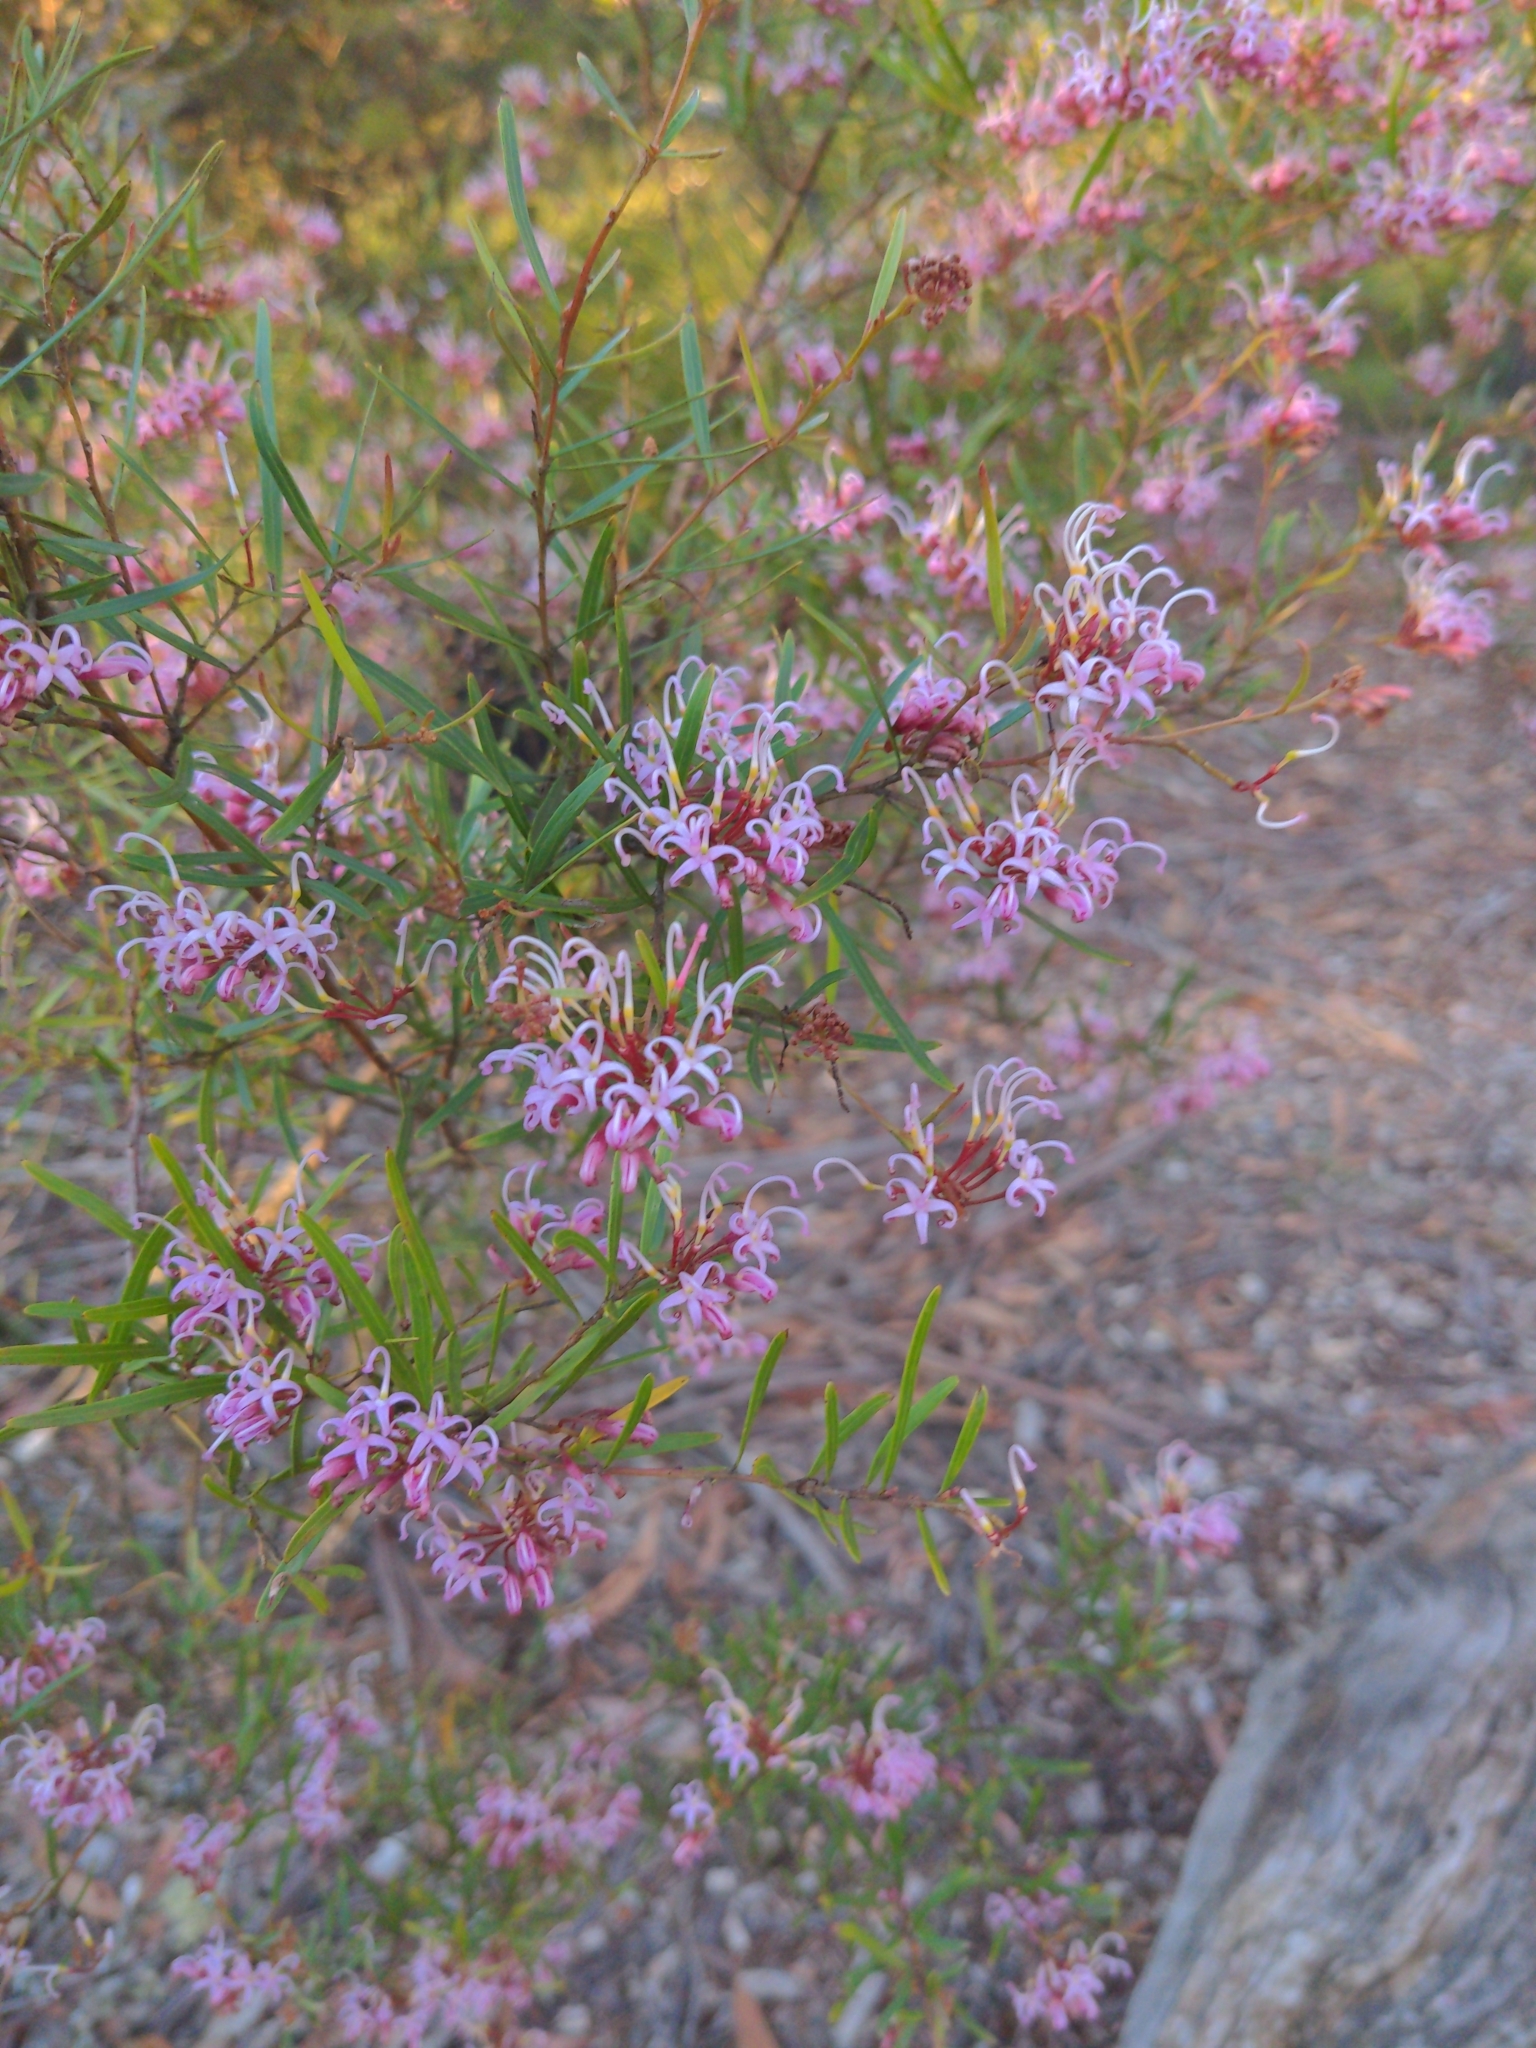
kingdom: Plantae
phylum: Tracheophyta
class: Magnoliopsida
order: Proteales
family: Proteaceae
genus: Grevillea
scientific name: Grevillea sericea
